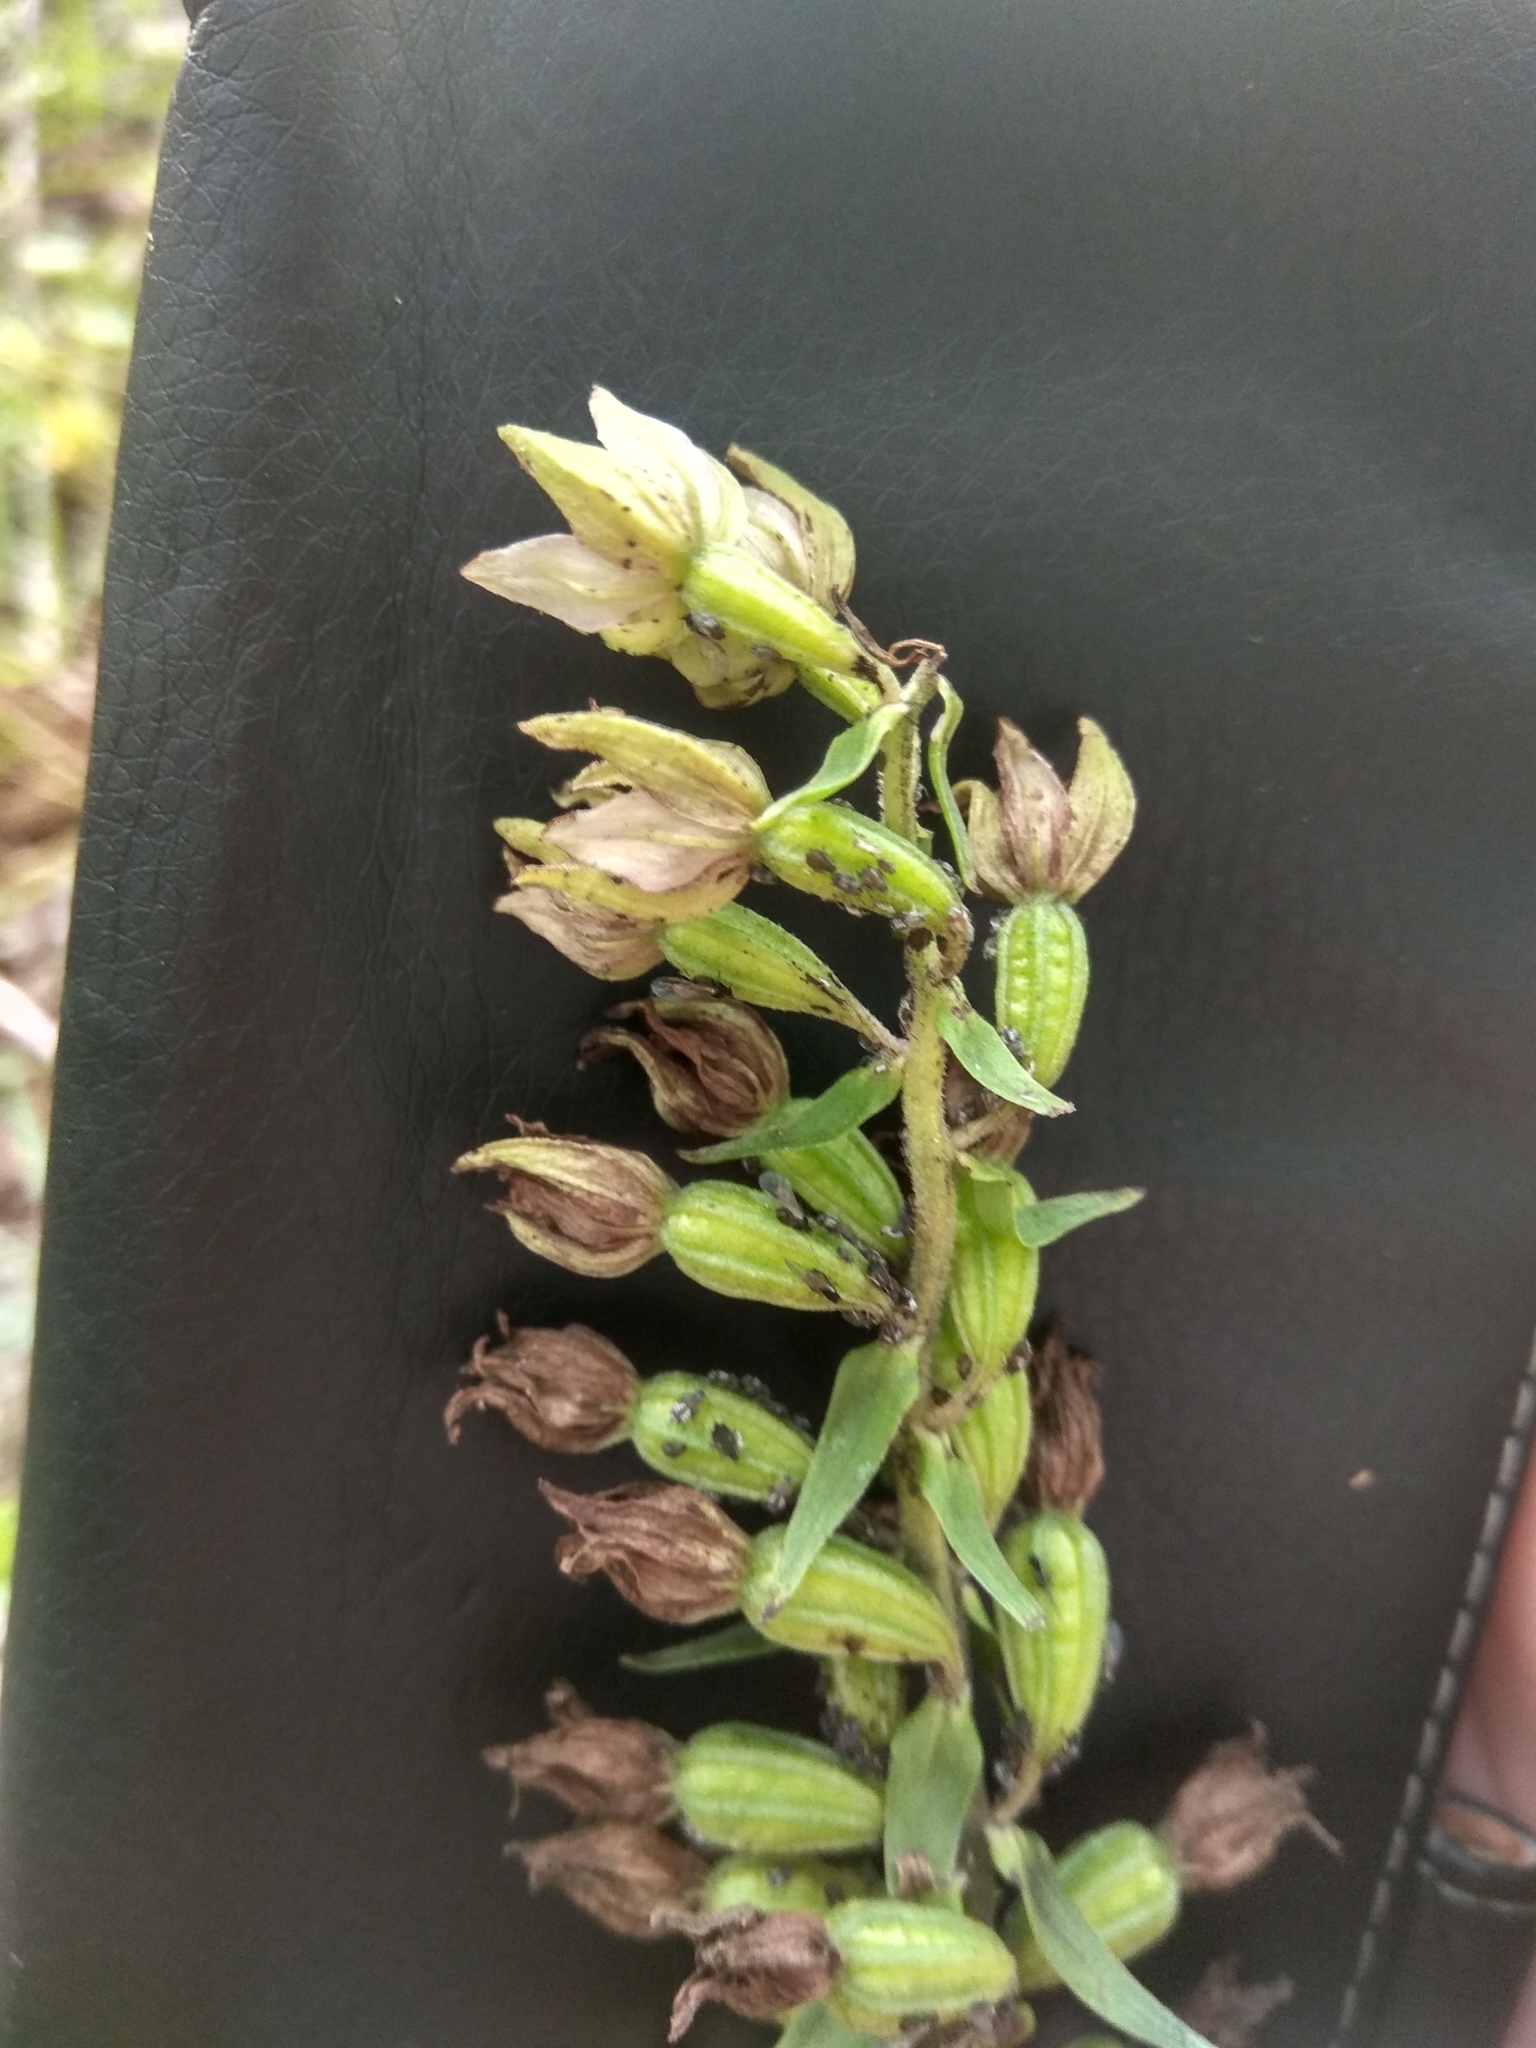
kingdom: Plantae
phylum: Tracheophyta
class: Liliopsida
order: Asparagales
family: Orchidaceae
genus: Epipactis
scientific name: Epipactis helleborine
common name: Broad-leaved helleborine
